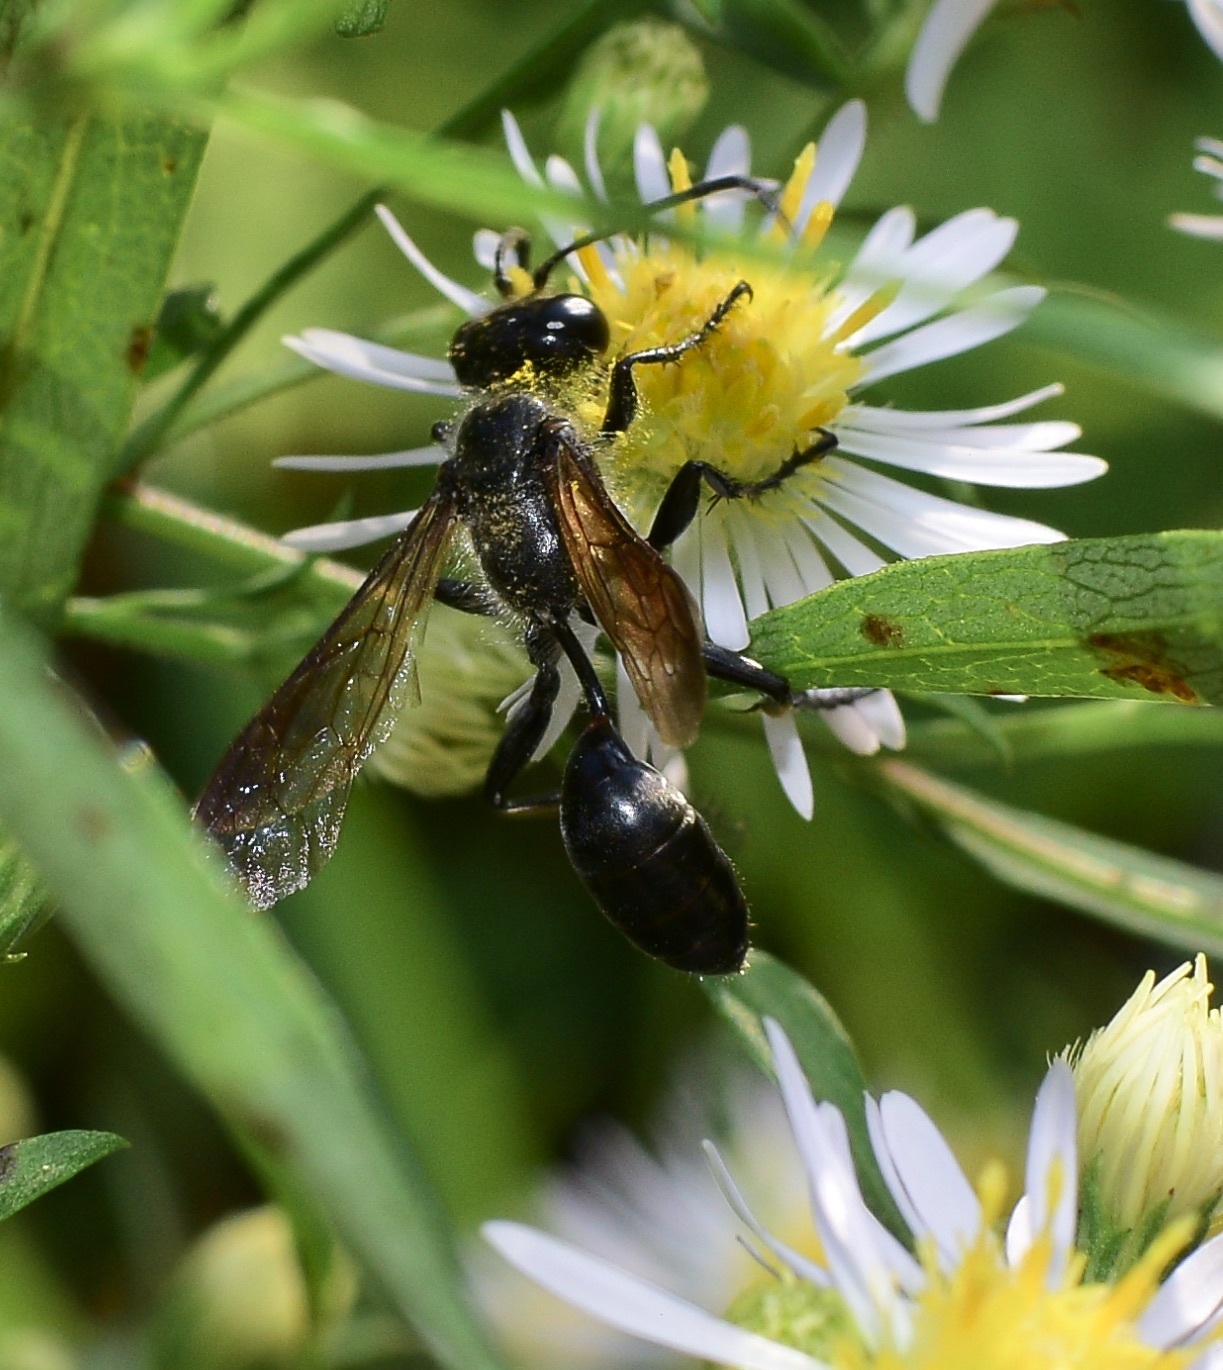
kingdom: Animalia
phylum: Arthropoda
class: Insecta
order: Hymenoptera
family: Sphecidae
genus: Isodontia
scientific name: Isodontia mexicana
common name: Mud dauber
